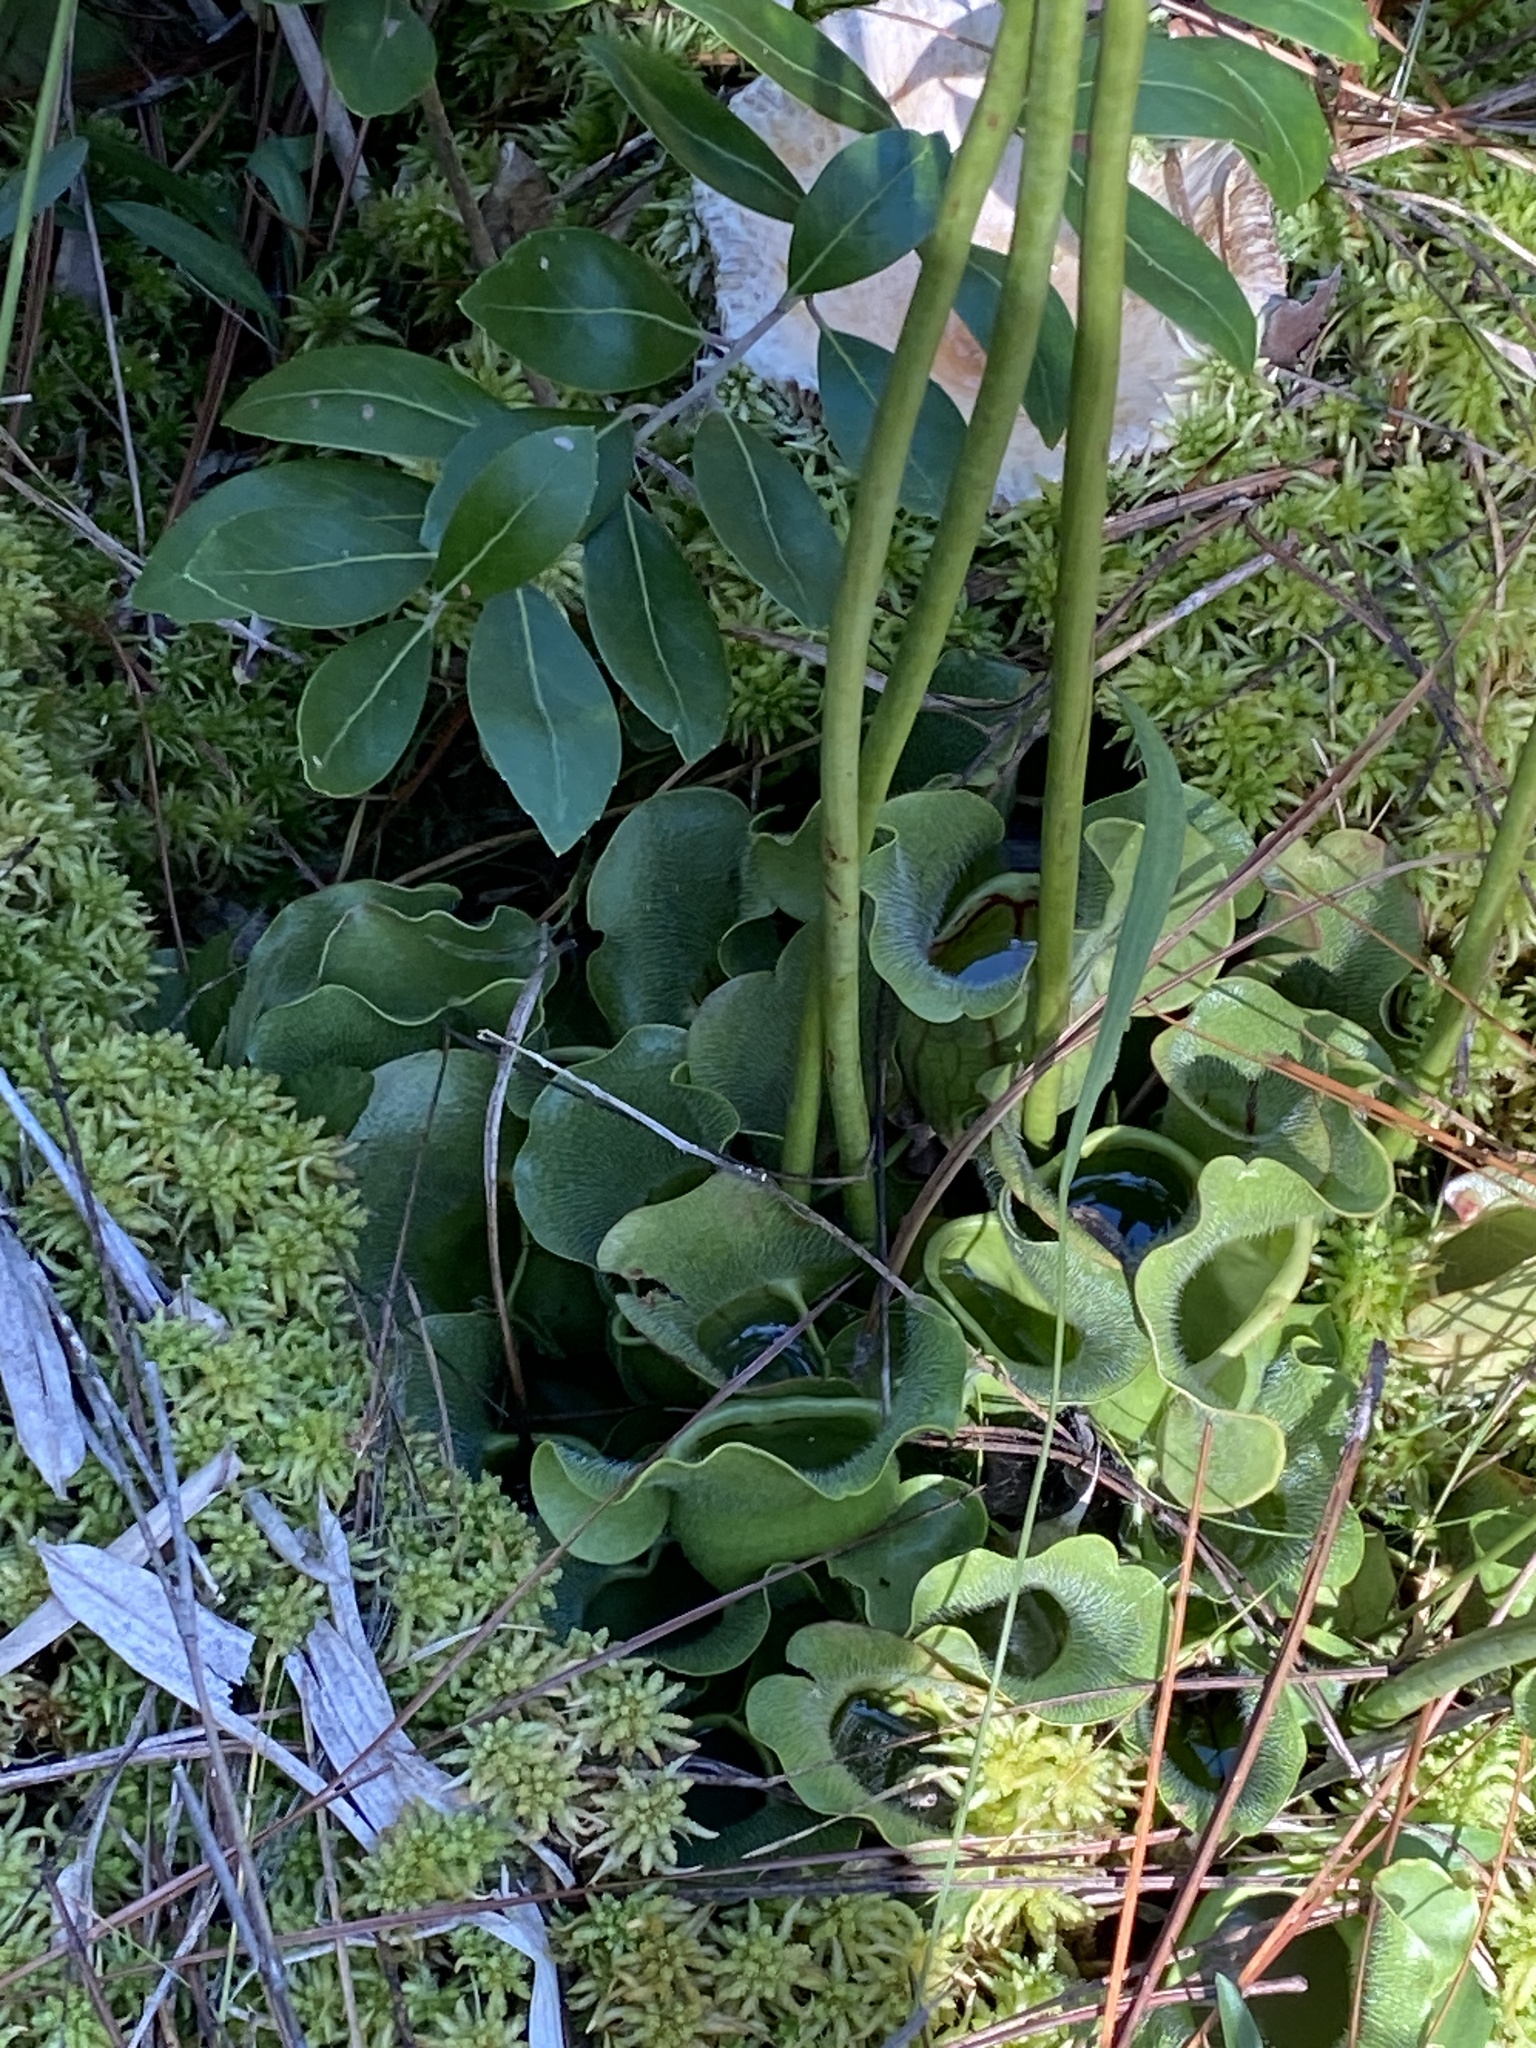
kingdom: Plantae
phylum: Tracheophyta
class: Magnoliopsida
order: Ericales
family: Sarraceniaceae
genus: Sarracenia
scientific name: Sarracenia purpurea
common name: Pitcherplant
